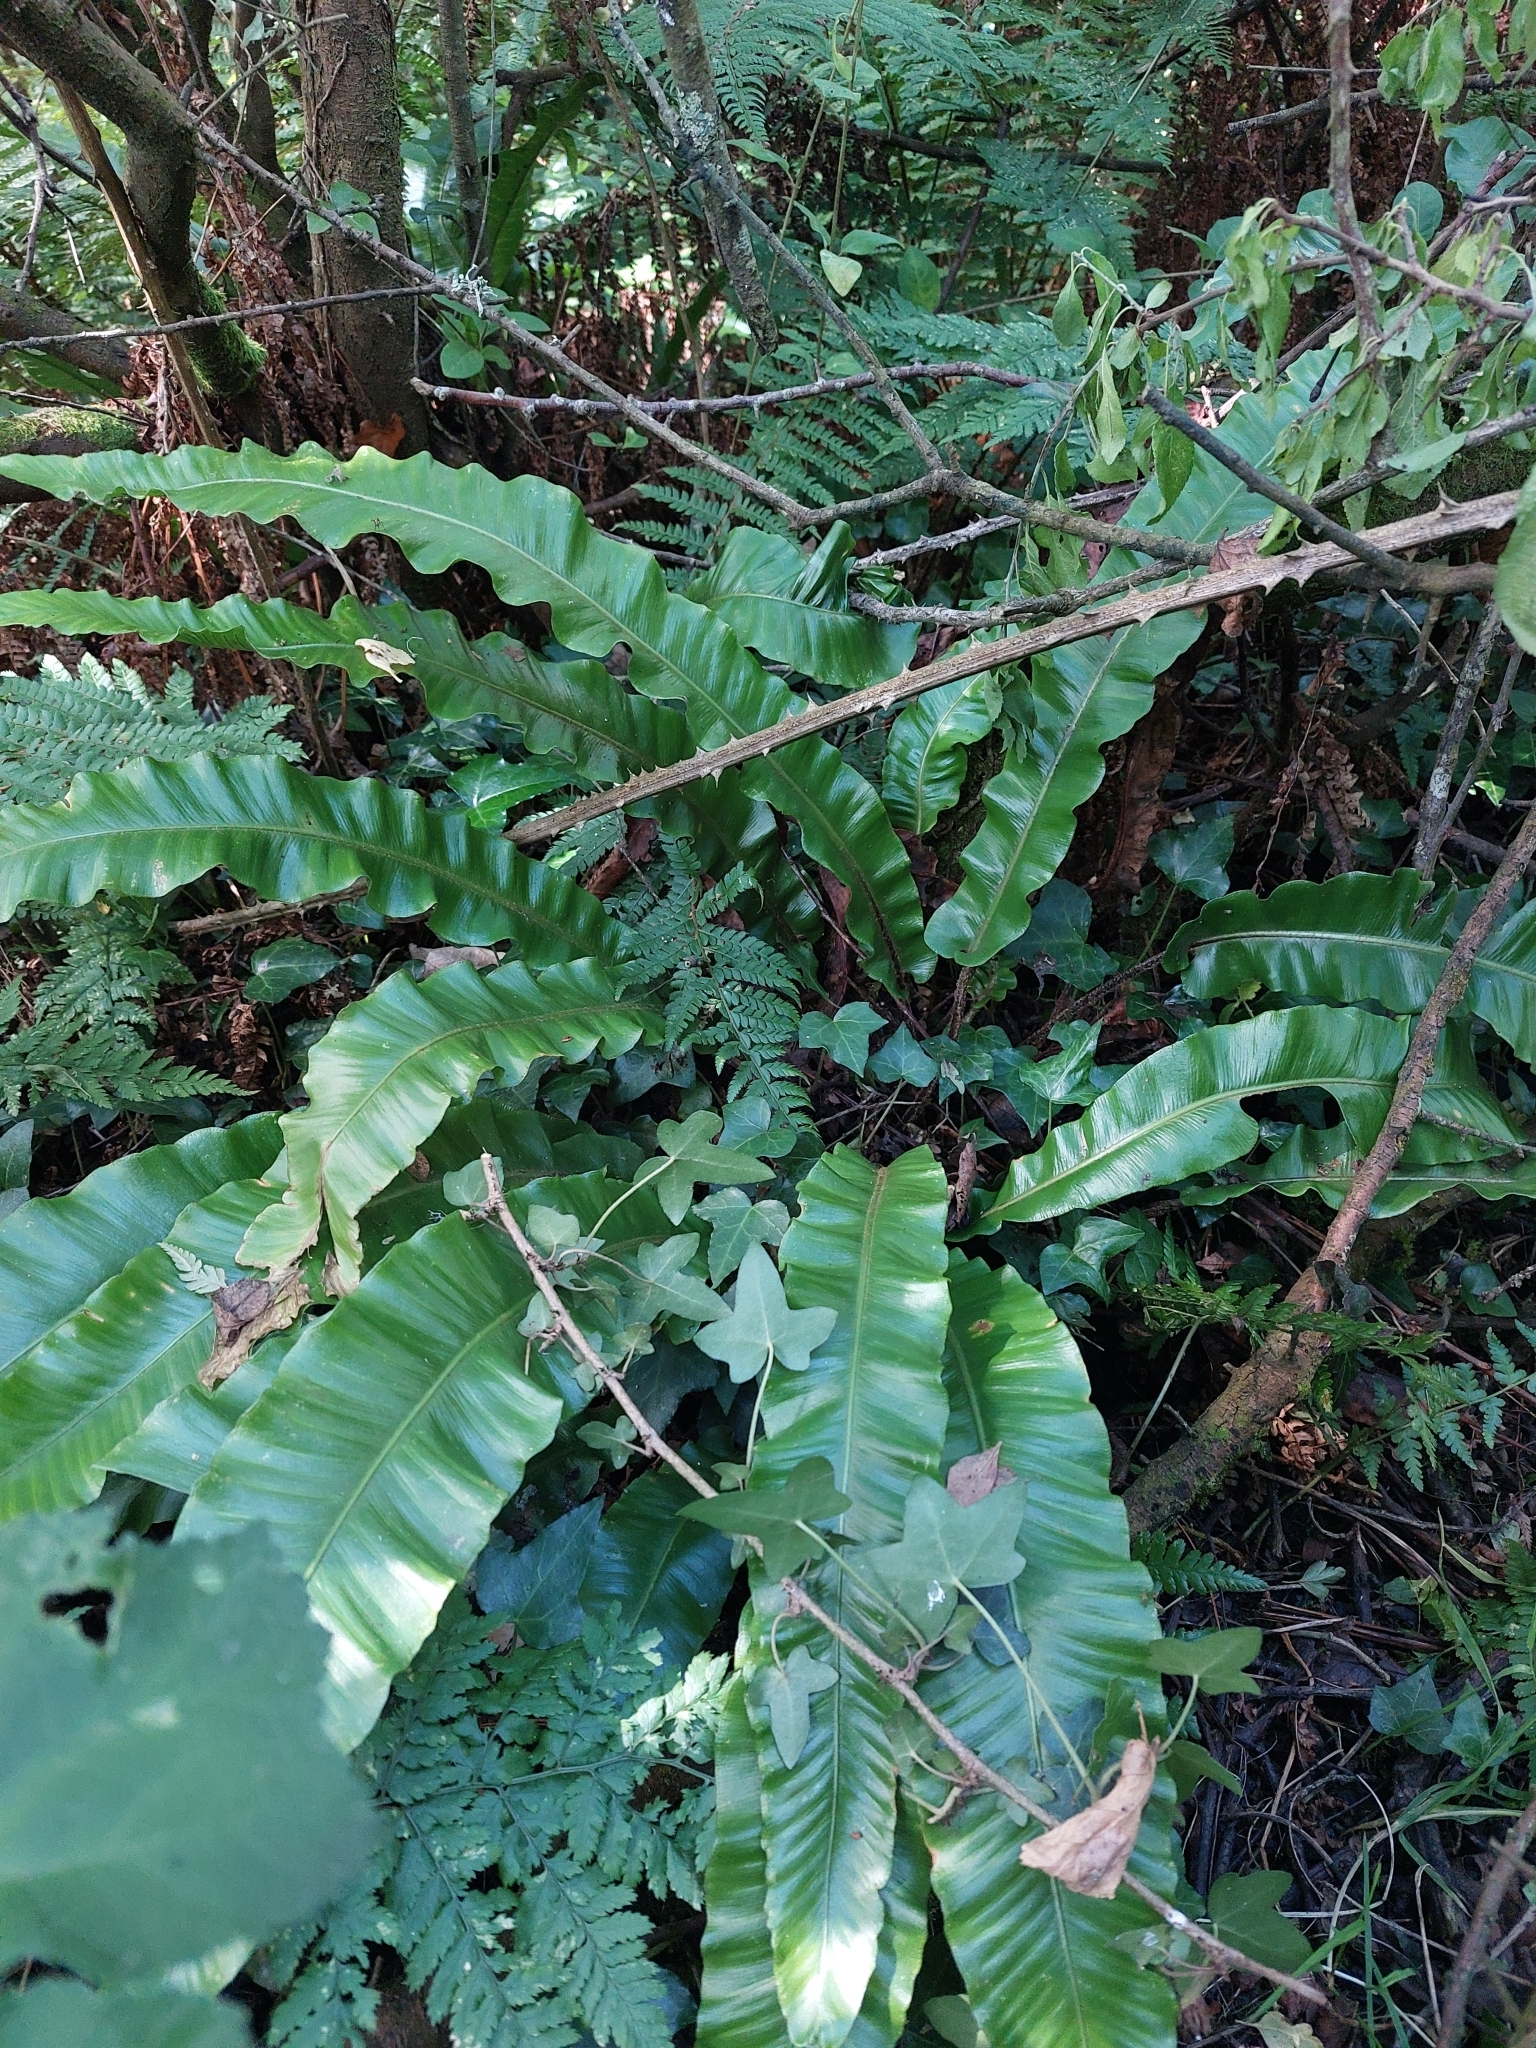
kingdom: Plantae
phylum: Tracheophyta
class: Polypodiopsida
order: Polypodiales
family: Aspleniaceae
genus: Asplenium
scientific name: Asplenium scolopendrium
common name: Hart's-tongue fern
